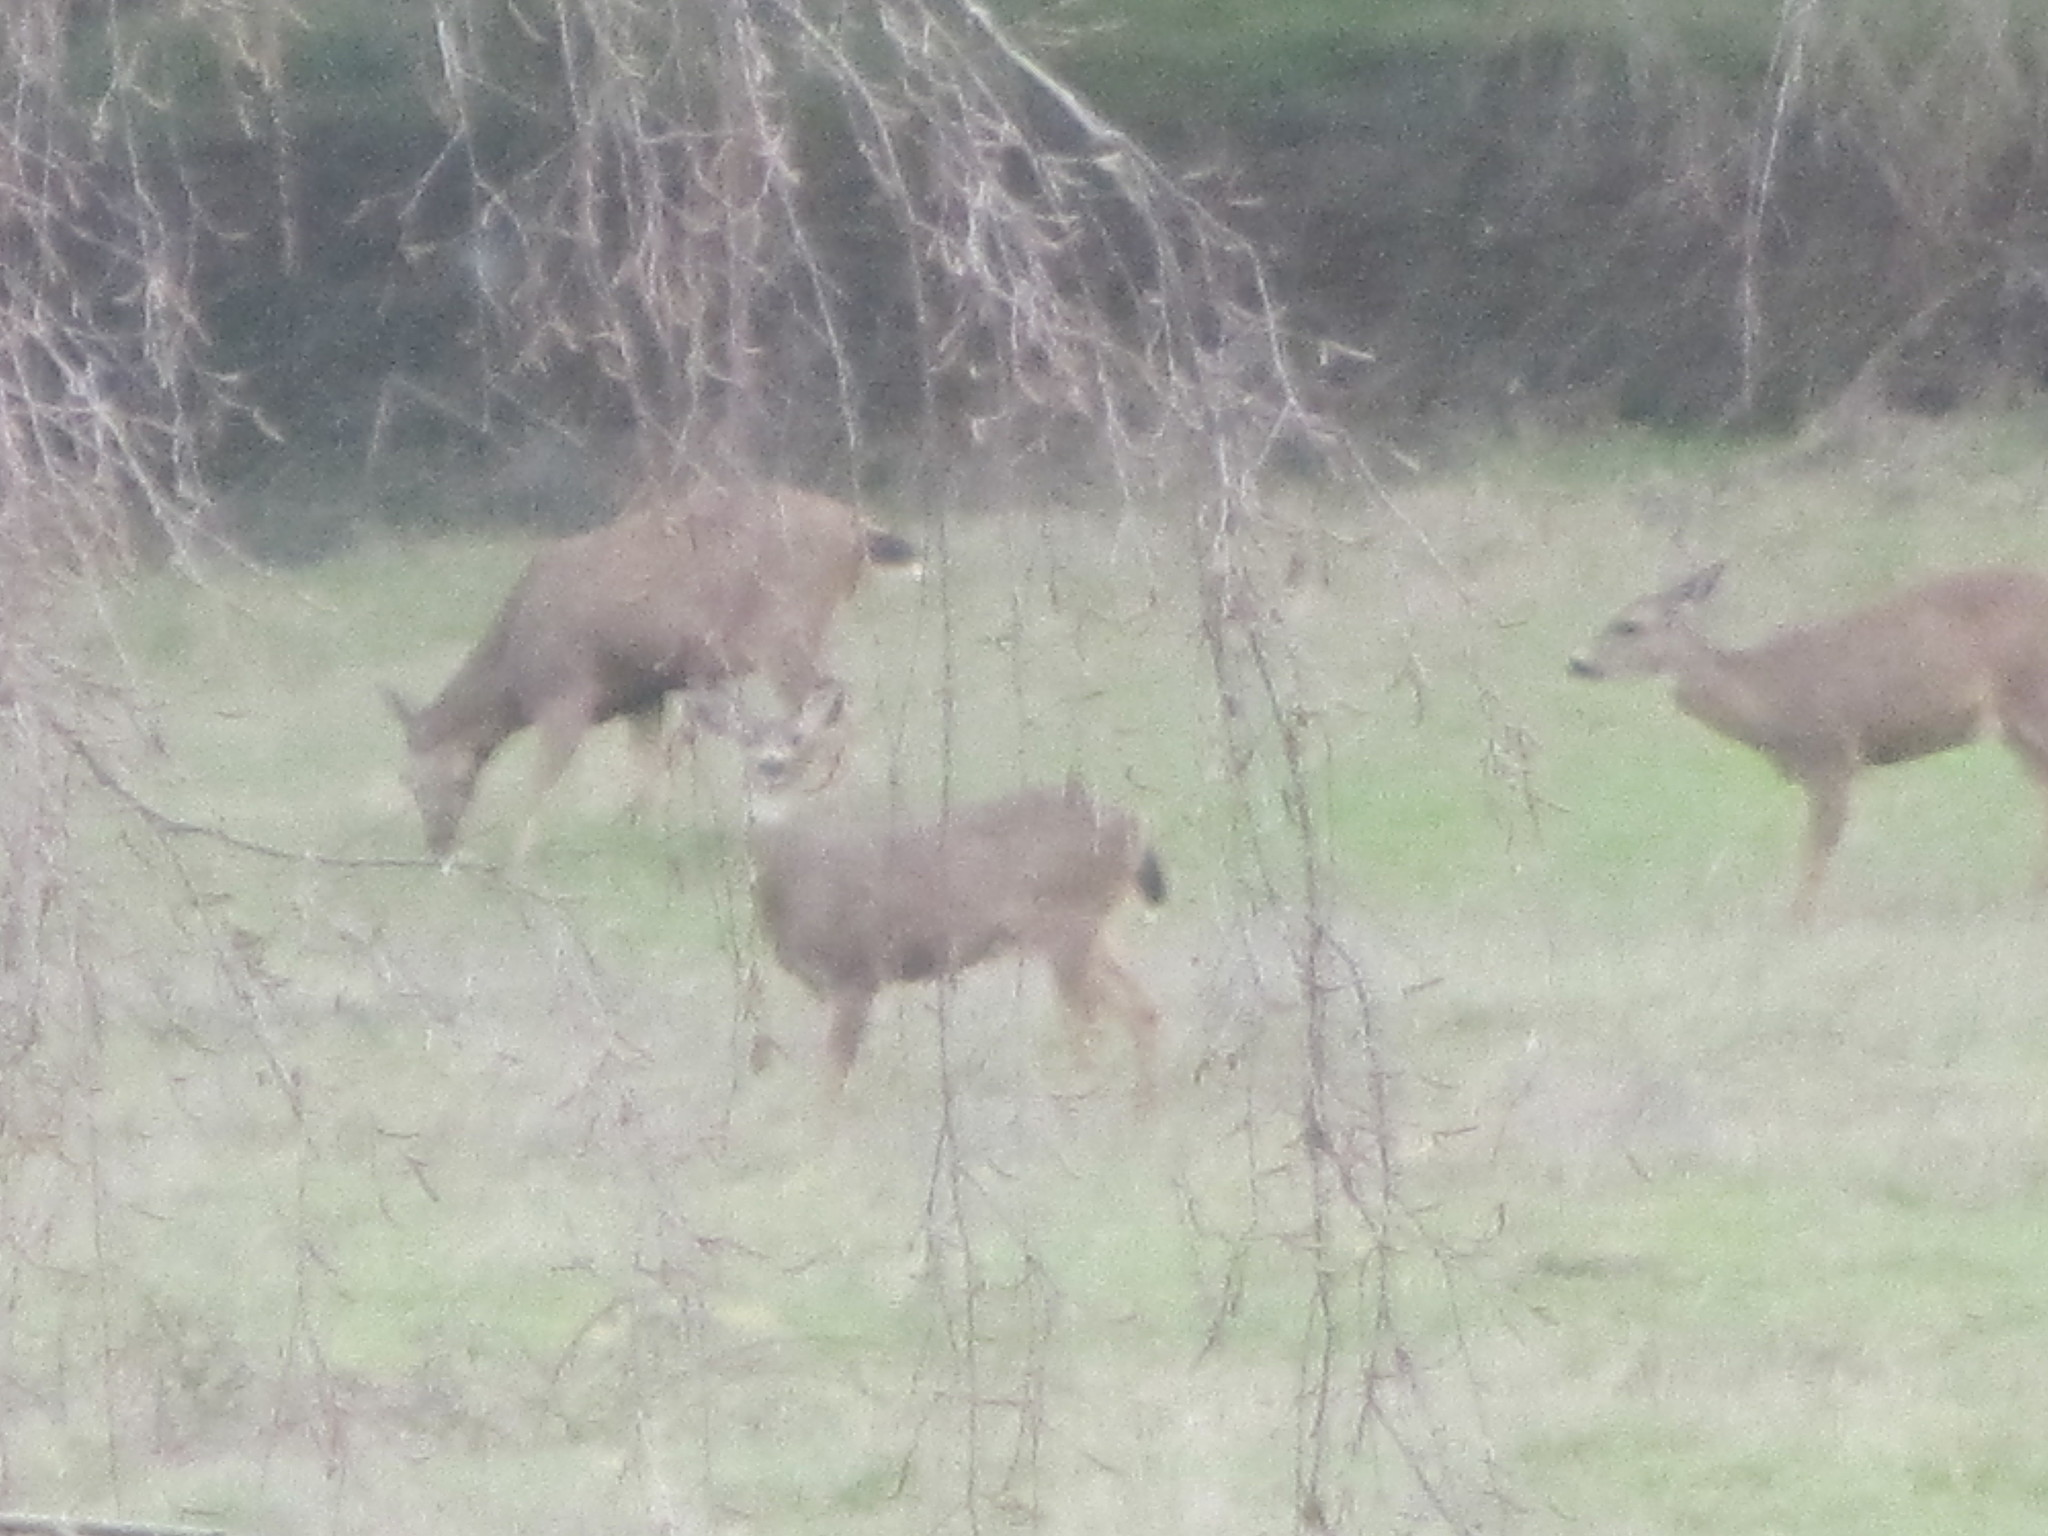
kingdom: Animalia
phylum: Chordata
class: Mammalia
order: Artiodactyla
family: Cervidae
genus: Odocoileus
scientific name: Odocoileus hemionus
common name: Mule deer
